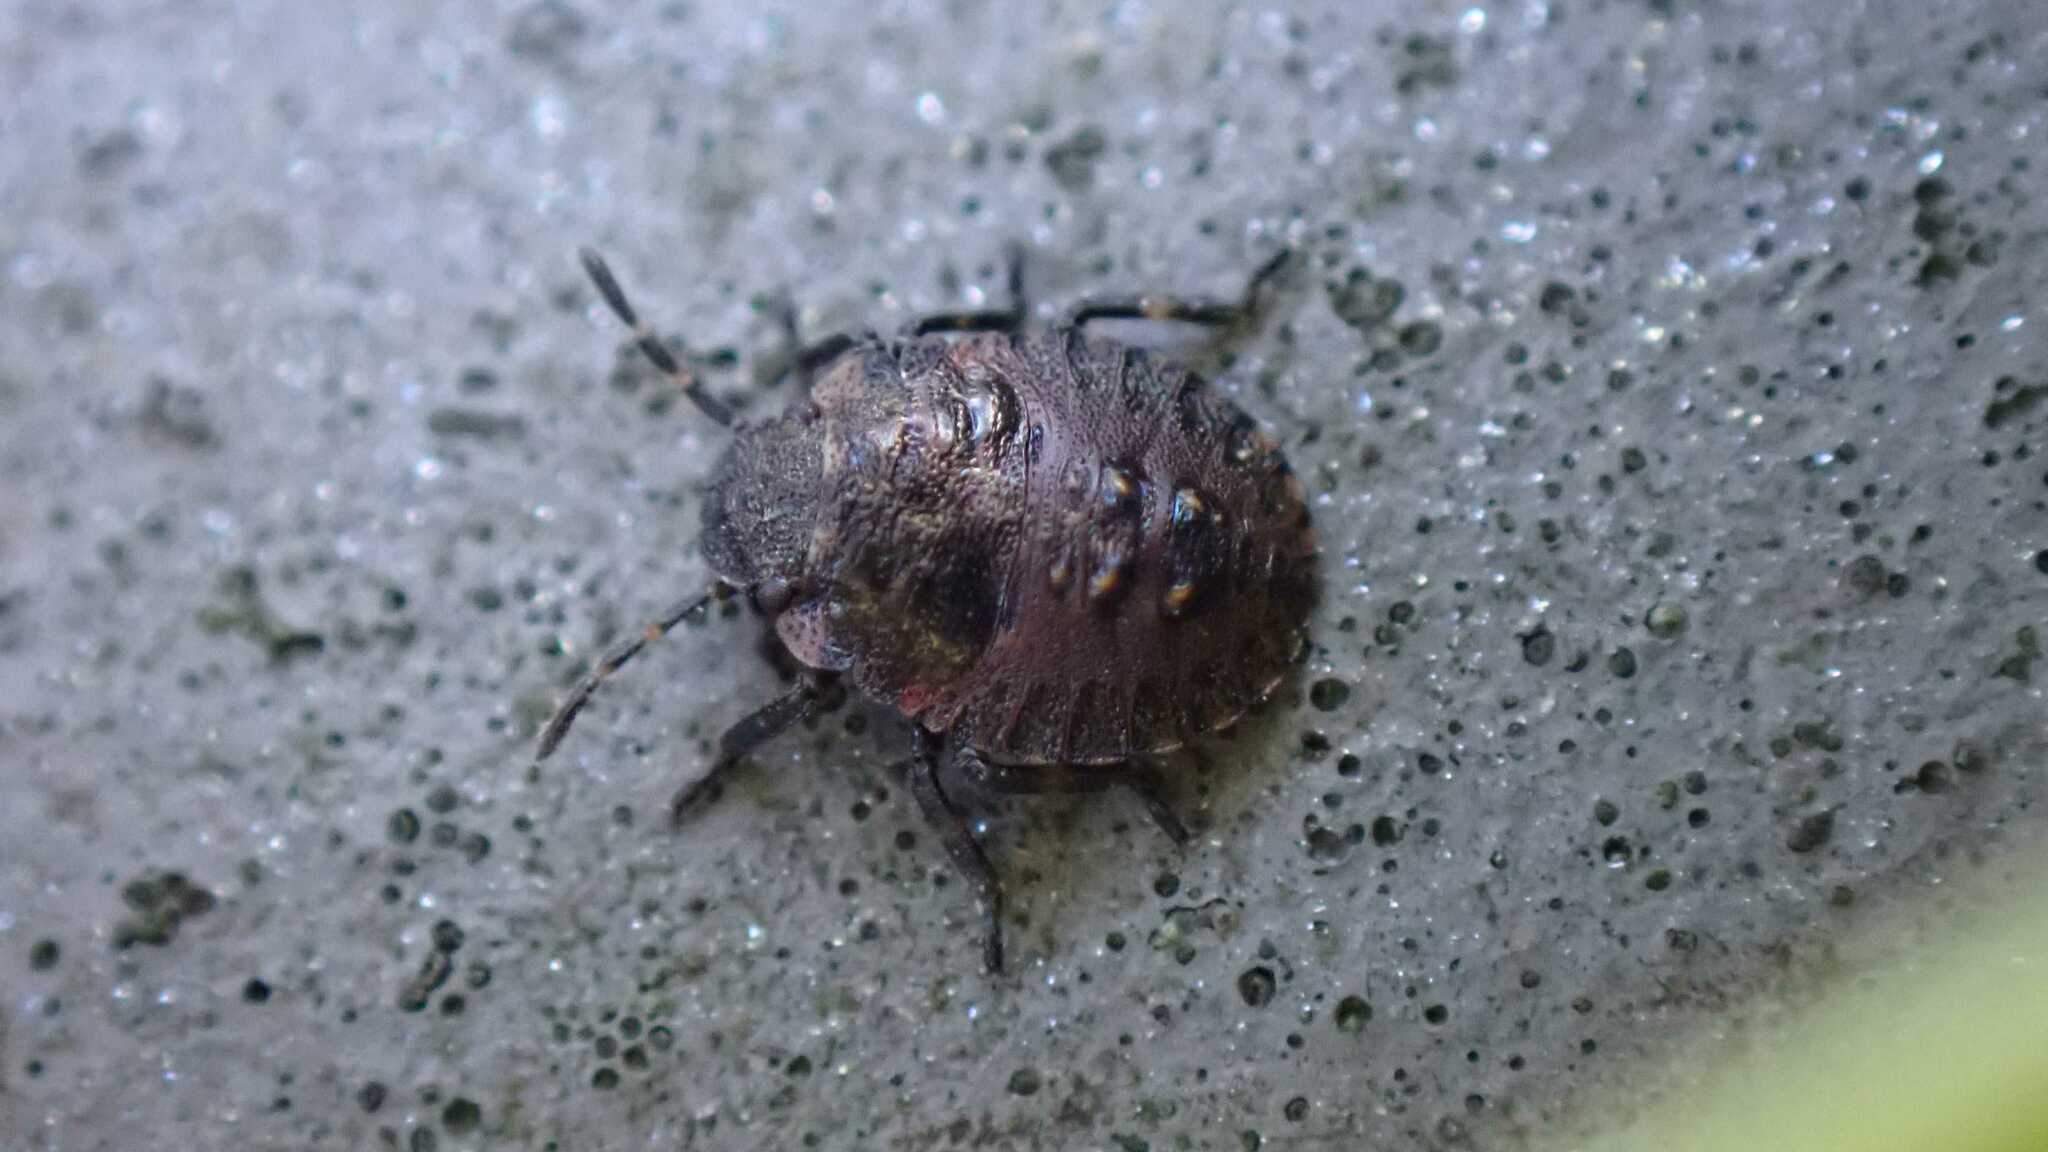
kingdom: Animalia
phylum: Arthropoda
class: Insecta
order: Hemiptera
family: Pentatomidae
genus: Pentatoma
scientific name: Pentatoma rufipes
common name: Forest bug
